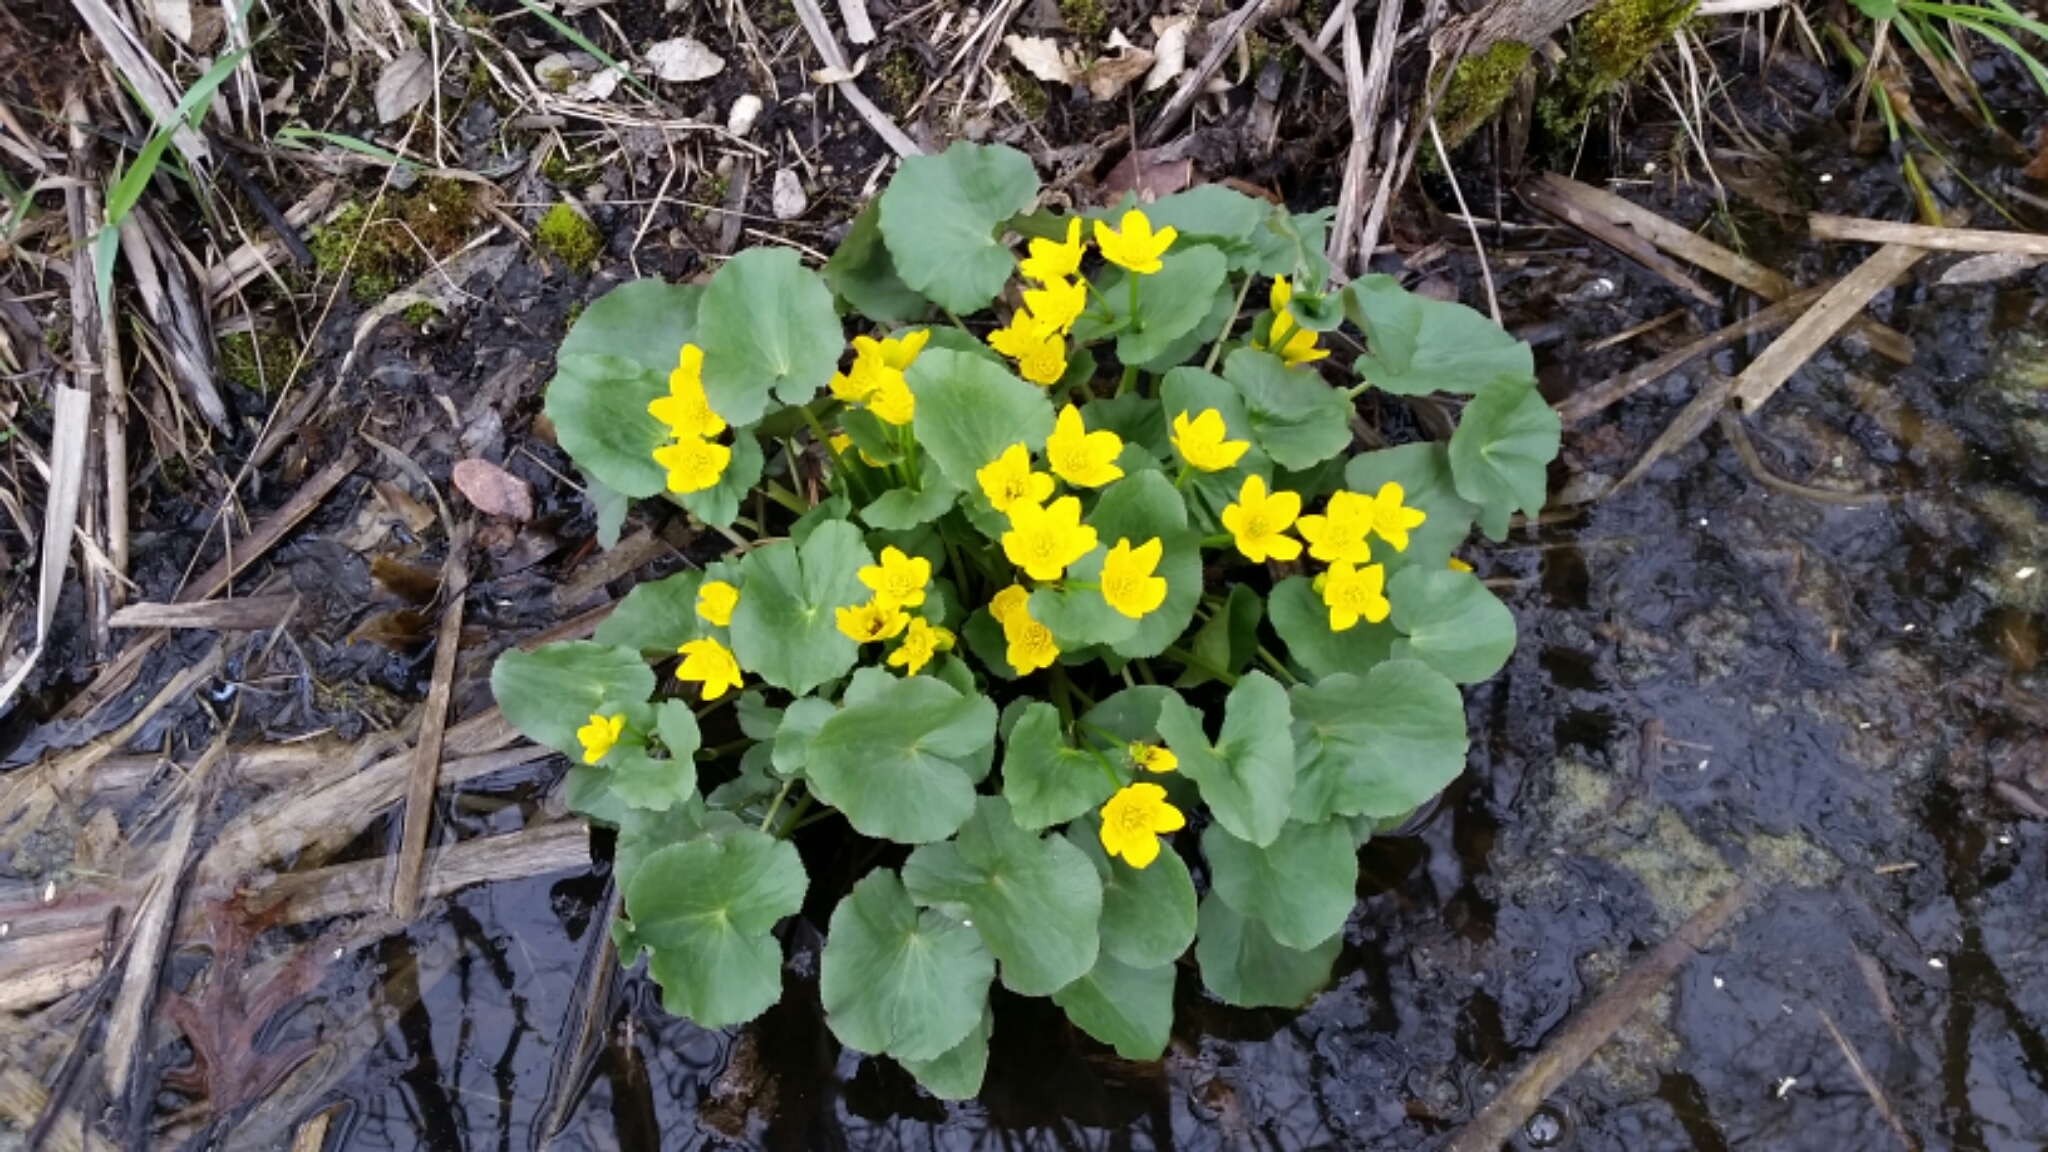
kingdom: Plantae
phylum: Tracheophyta
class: Magnoliopsida
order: Ranunculales
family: Ranunculaceae
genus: Caltha
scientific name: Caltha palustris
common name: Marsh marigold
